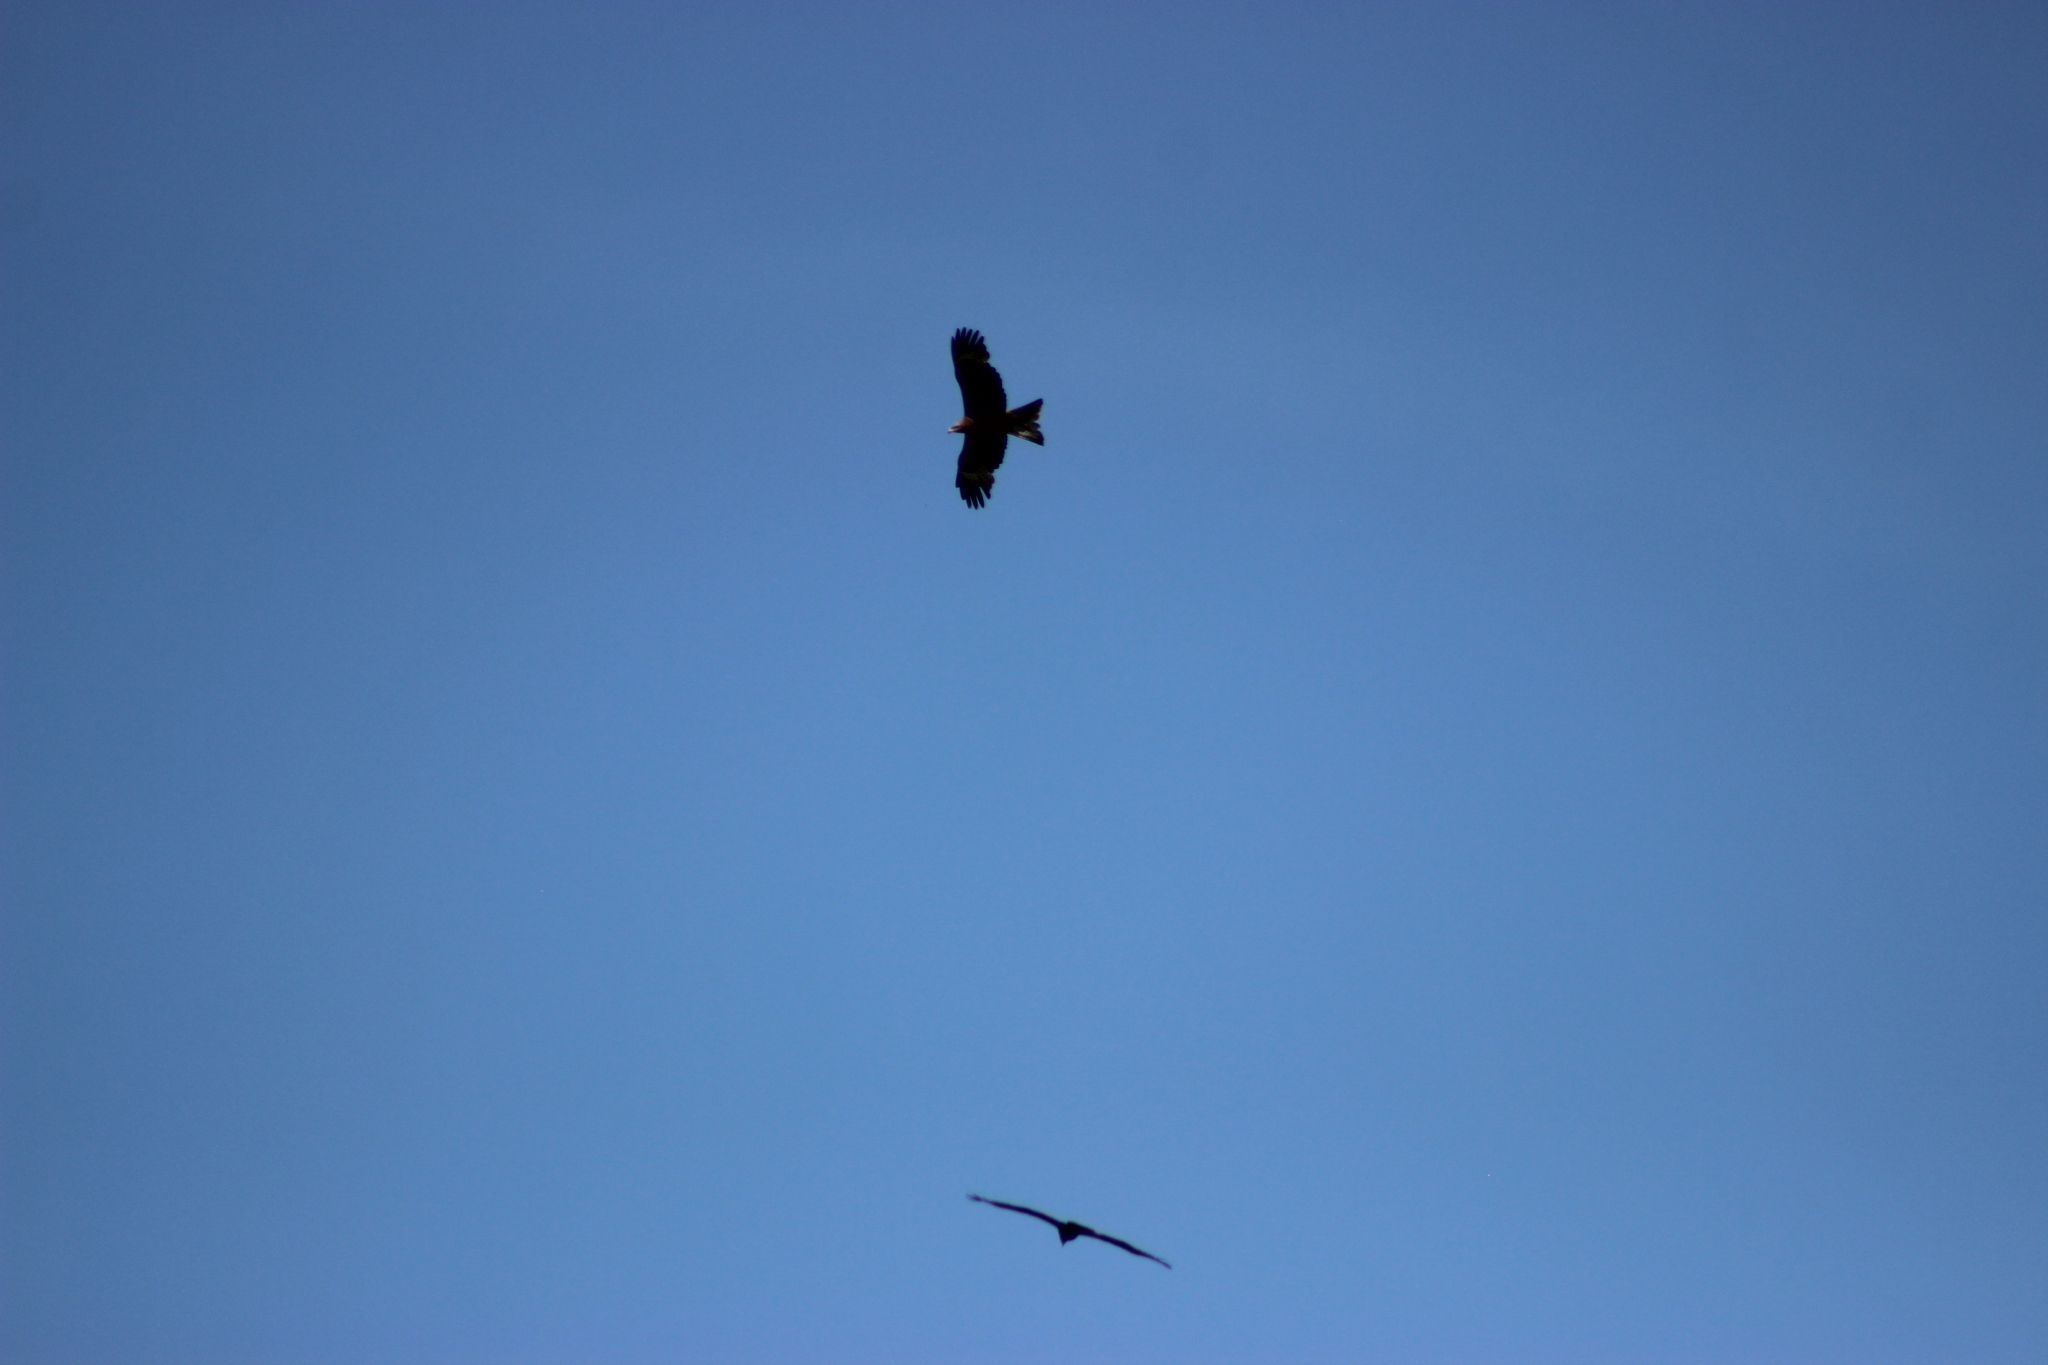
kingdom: Animalia
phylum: Chordata
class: Aves
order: Accipitriformes
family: Accipitridae
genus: Milvus
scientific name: Milvus migrans
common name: Black kite
